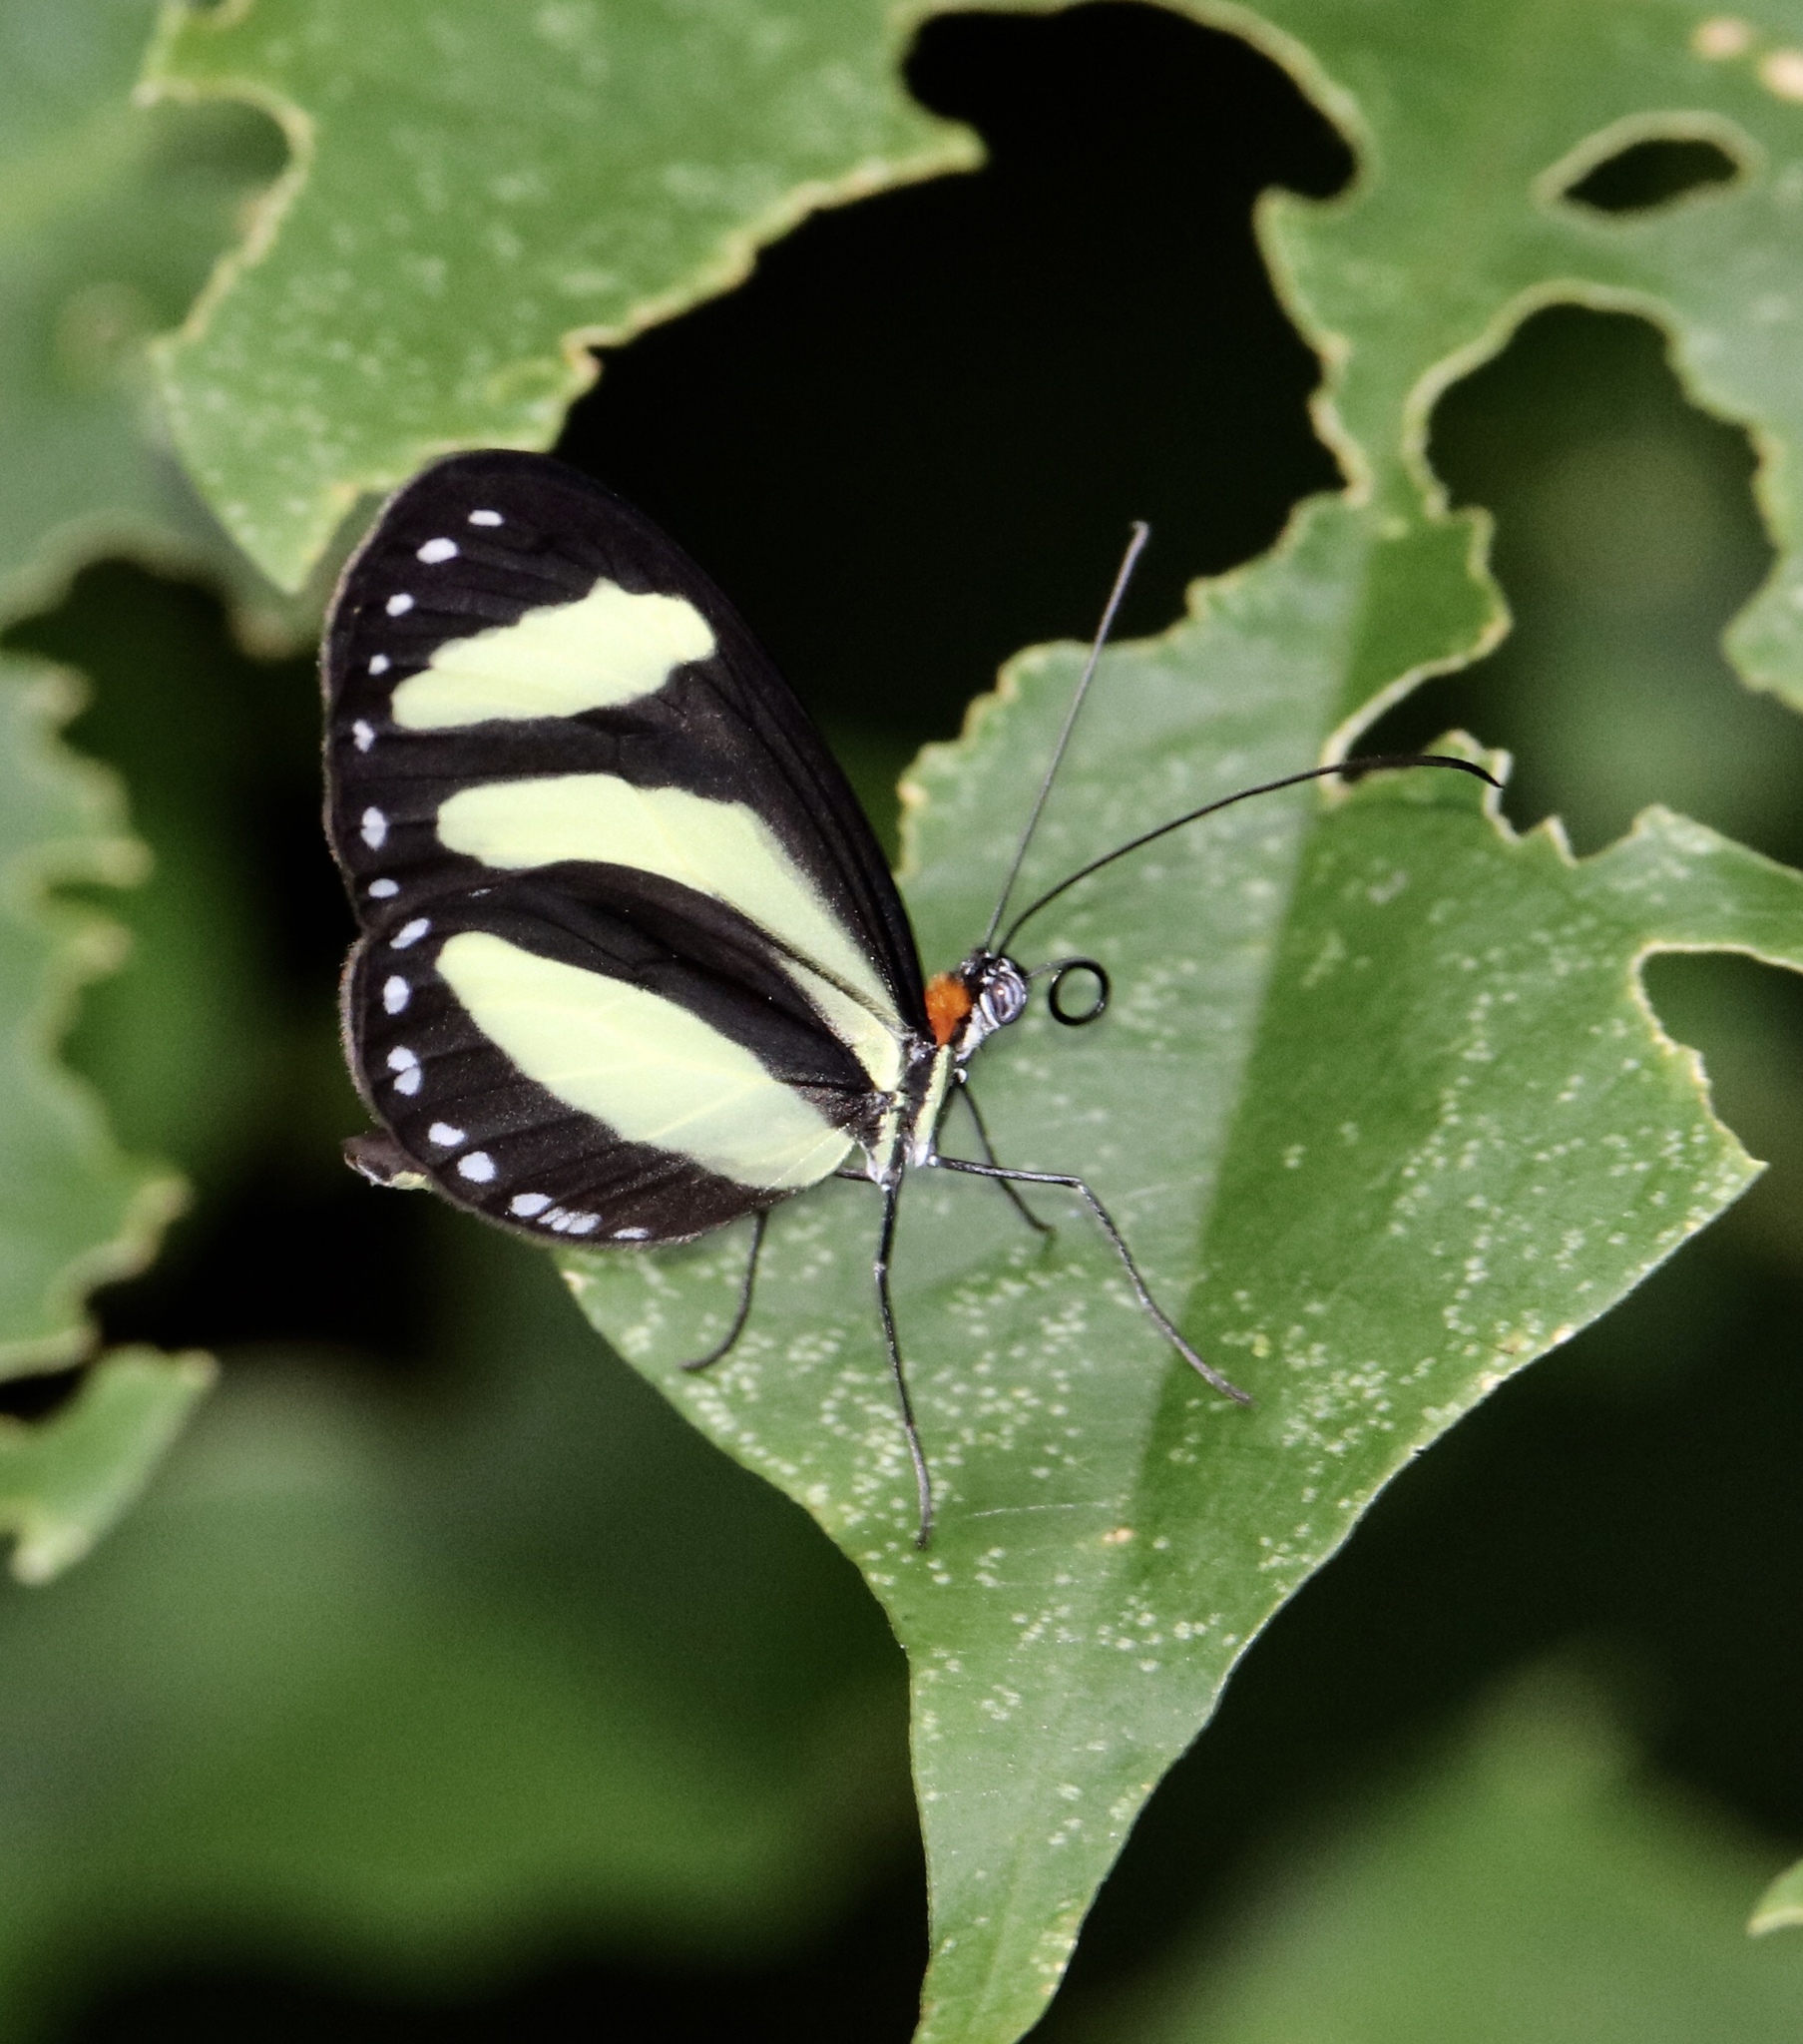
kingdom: Animalia
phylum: Arthropoda
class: Insecta
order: Lepidoptera
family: Nymphalidae
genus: Aeria
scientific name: Aeria eurimedia
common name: Banded tigerwing
